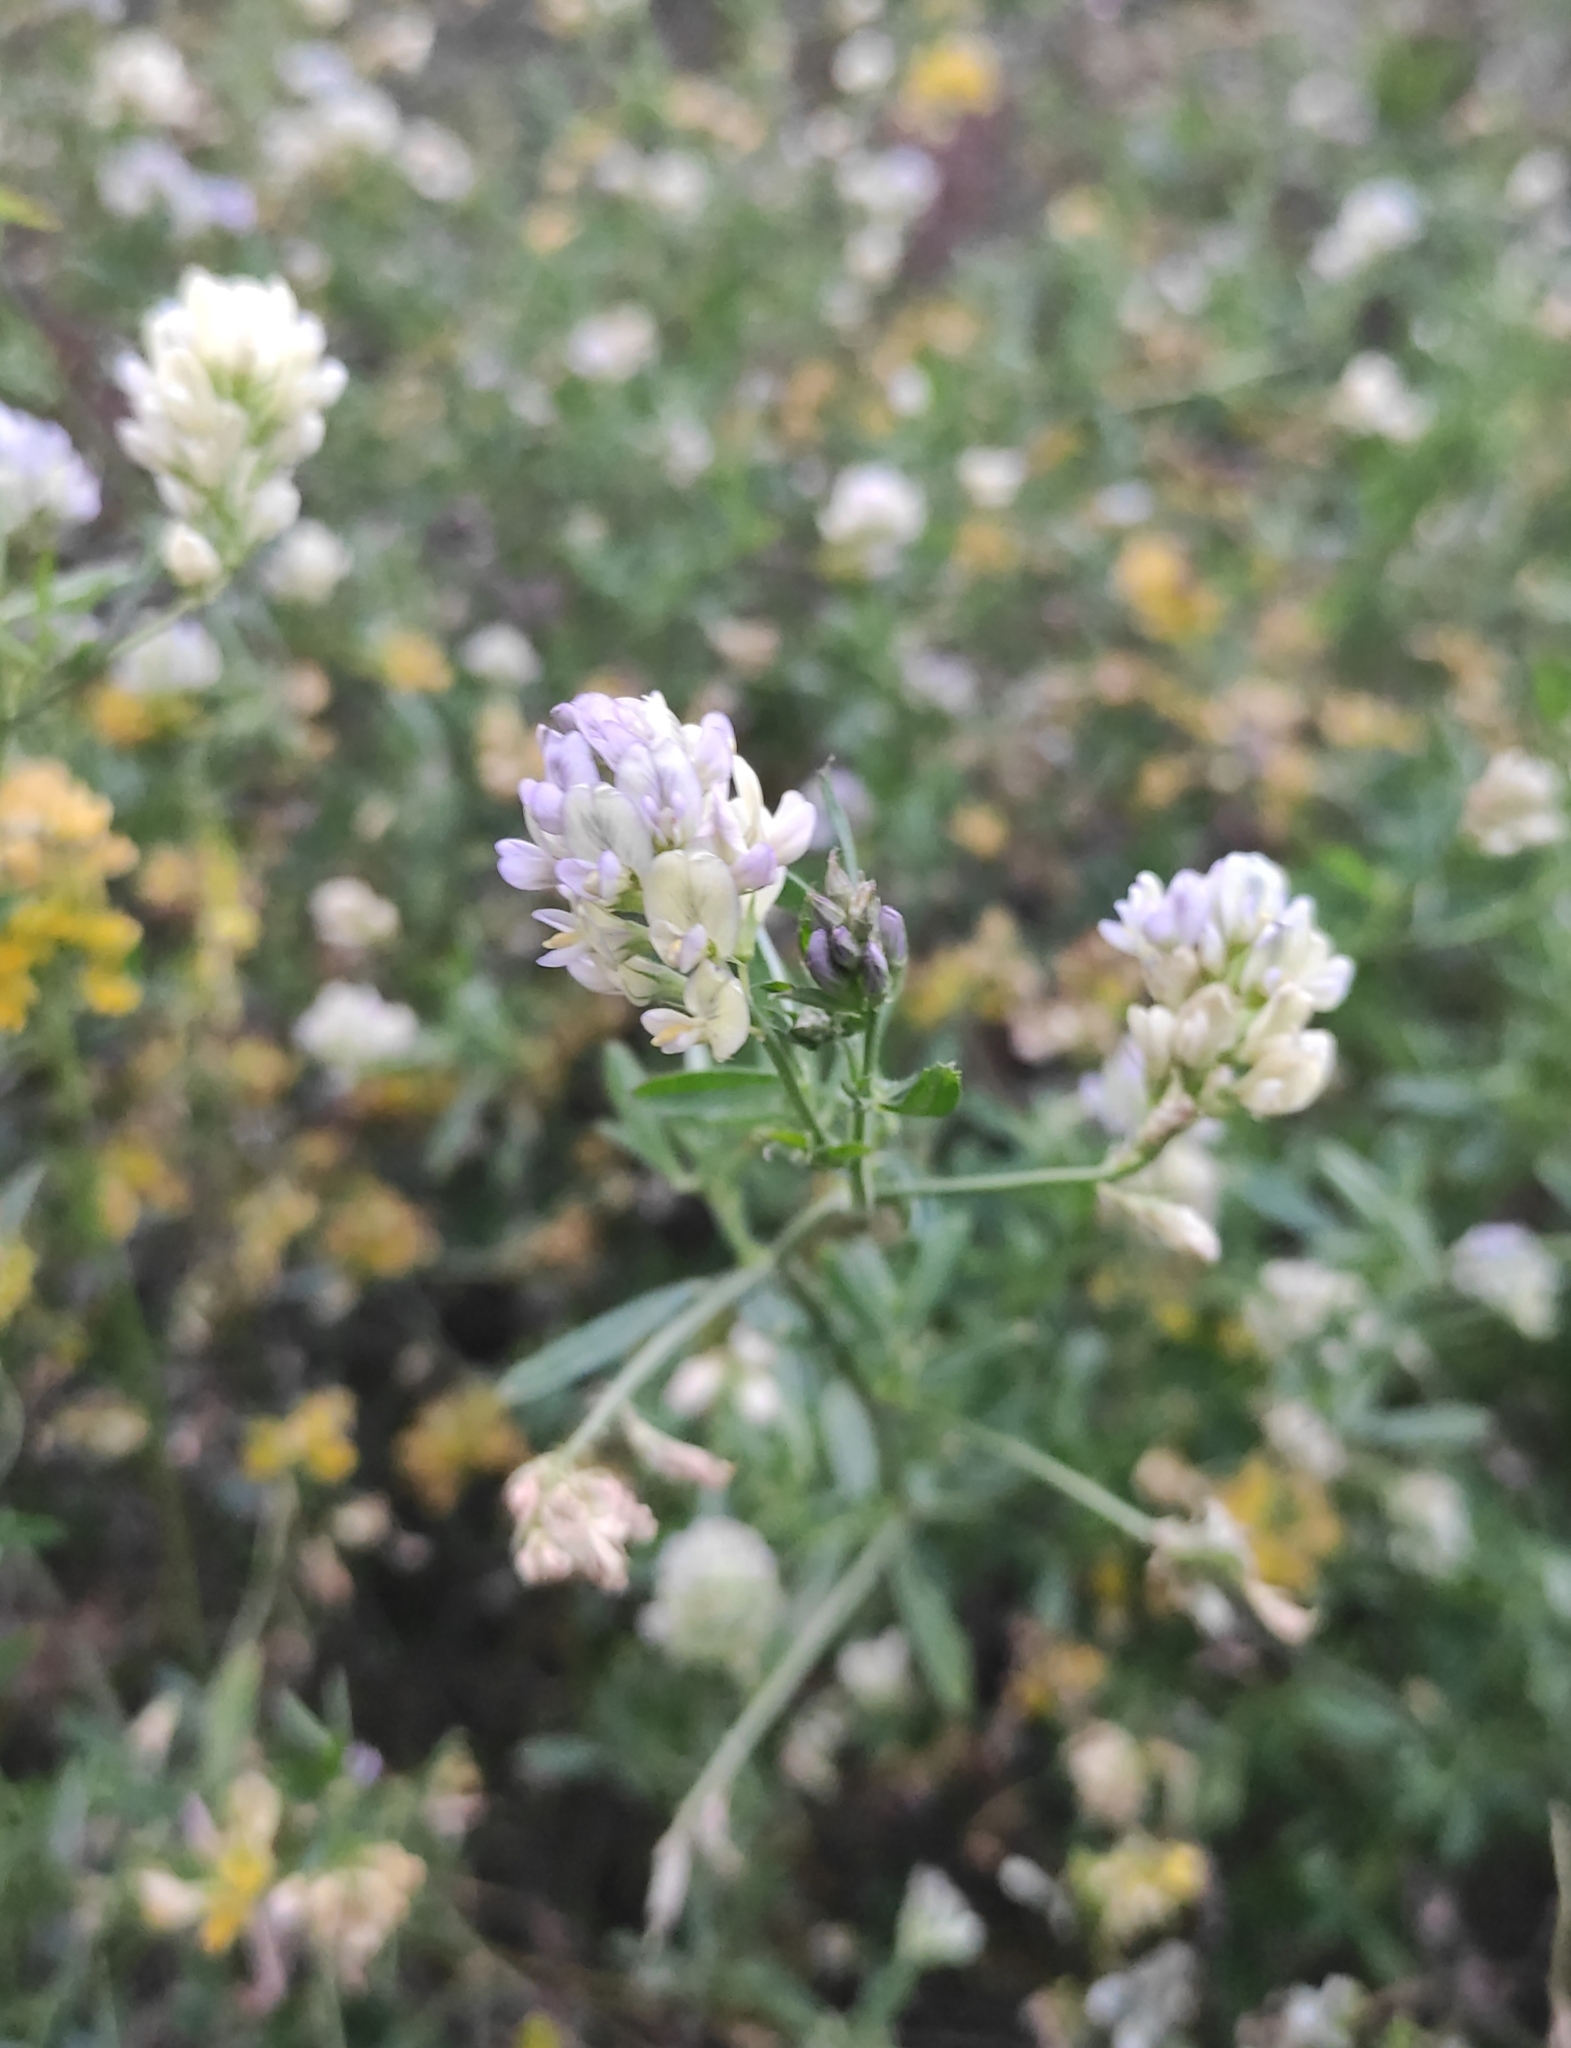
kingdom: Plantae
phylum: Tracheophyta
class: Magnoliopsida
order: Fabales
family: Fabaceae
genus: Medicago
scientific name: Medicago varia
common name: Sand lucerne
